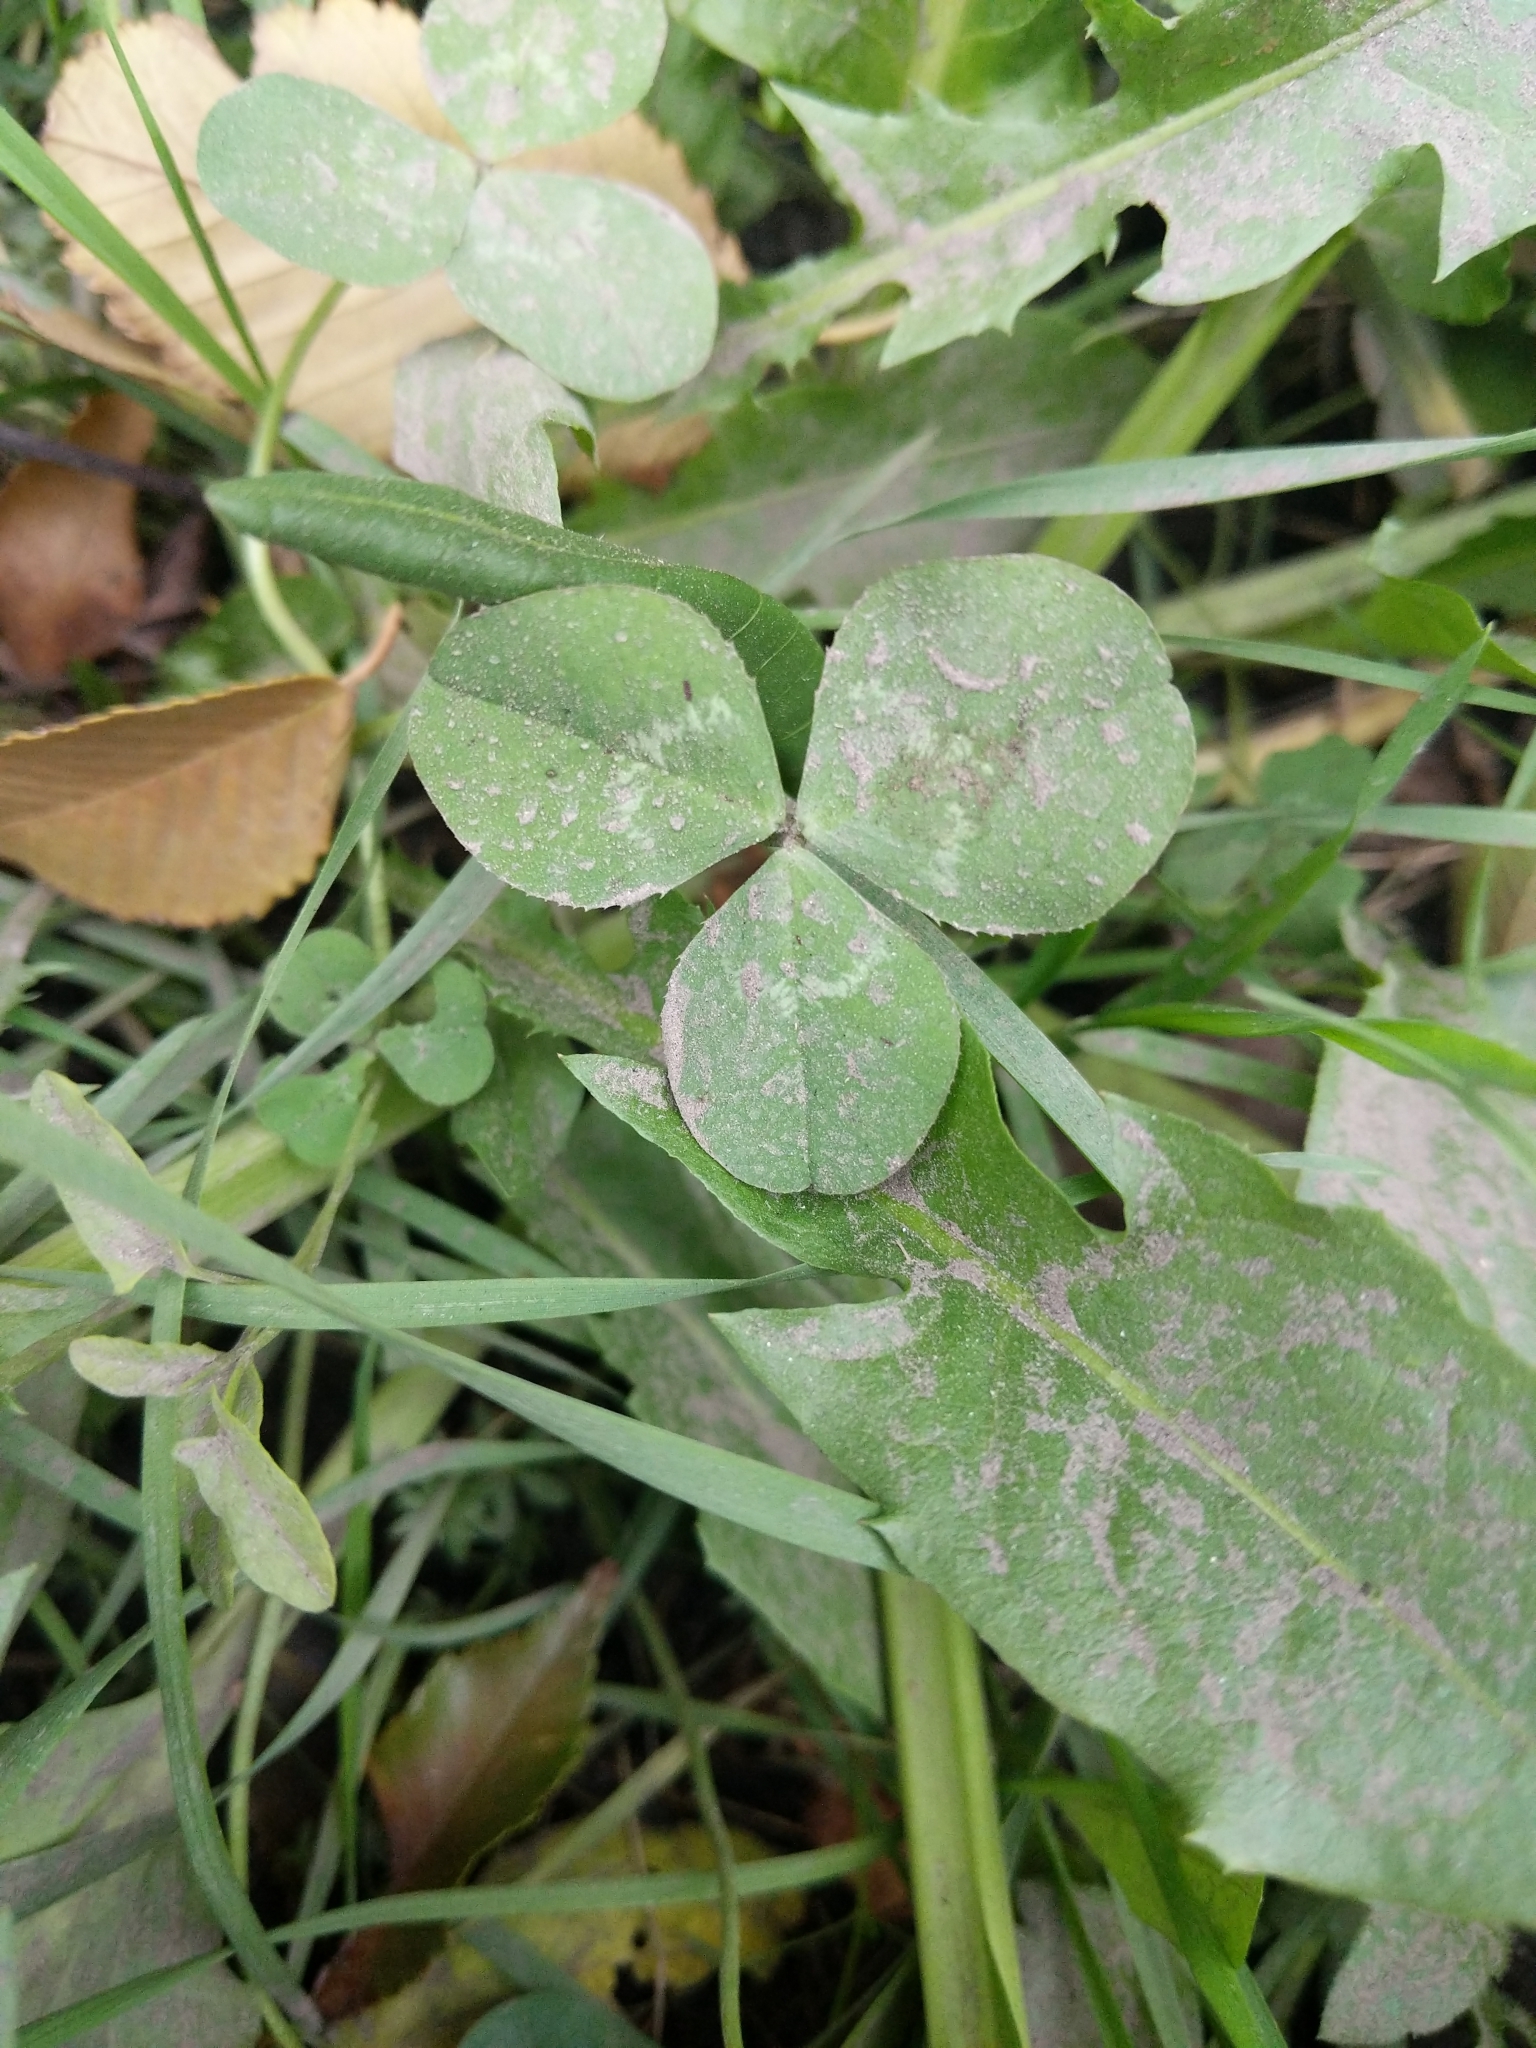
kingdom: Plantae
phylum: Tracheophyta
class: Magnoliopsida
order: Fabales
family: Fabaceae
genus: Trifolium
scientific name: Trifolium repens
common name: White clover
